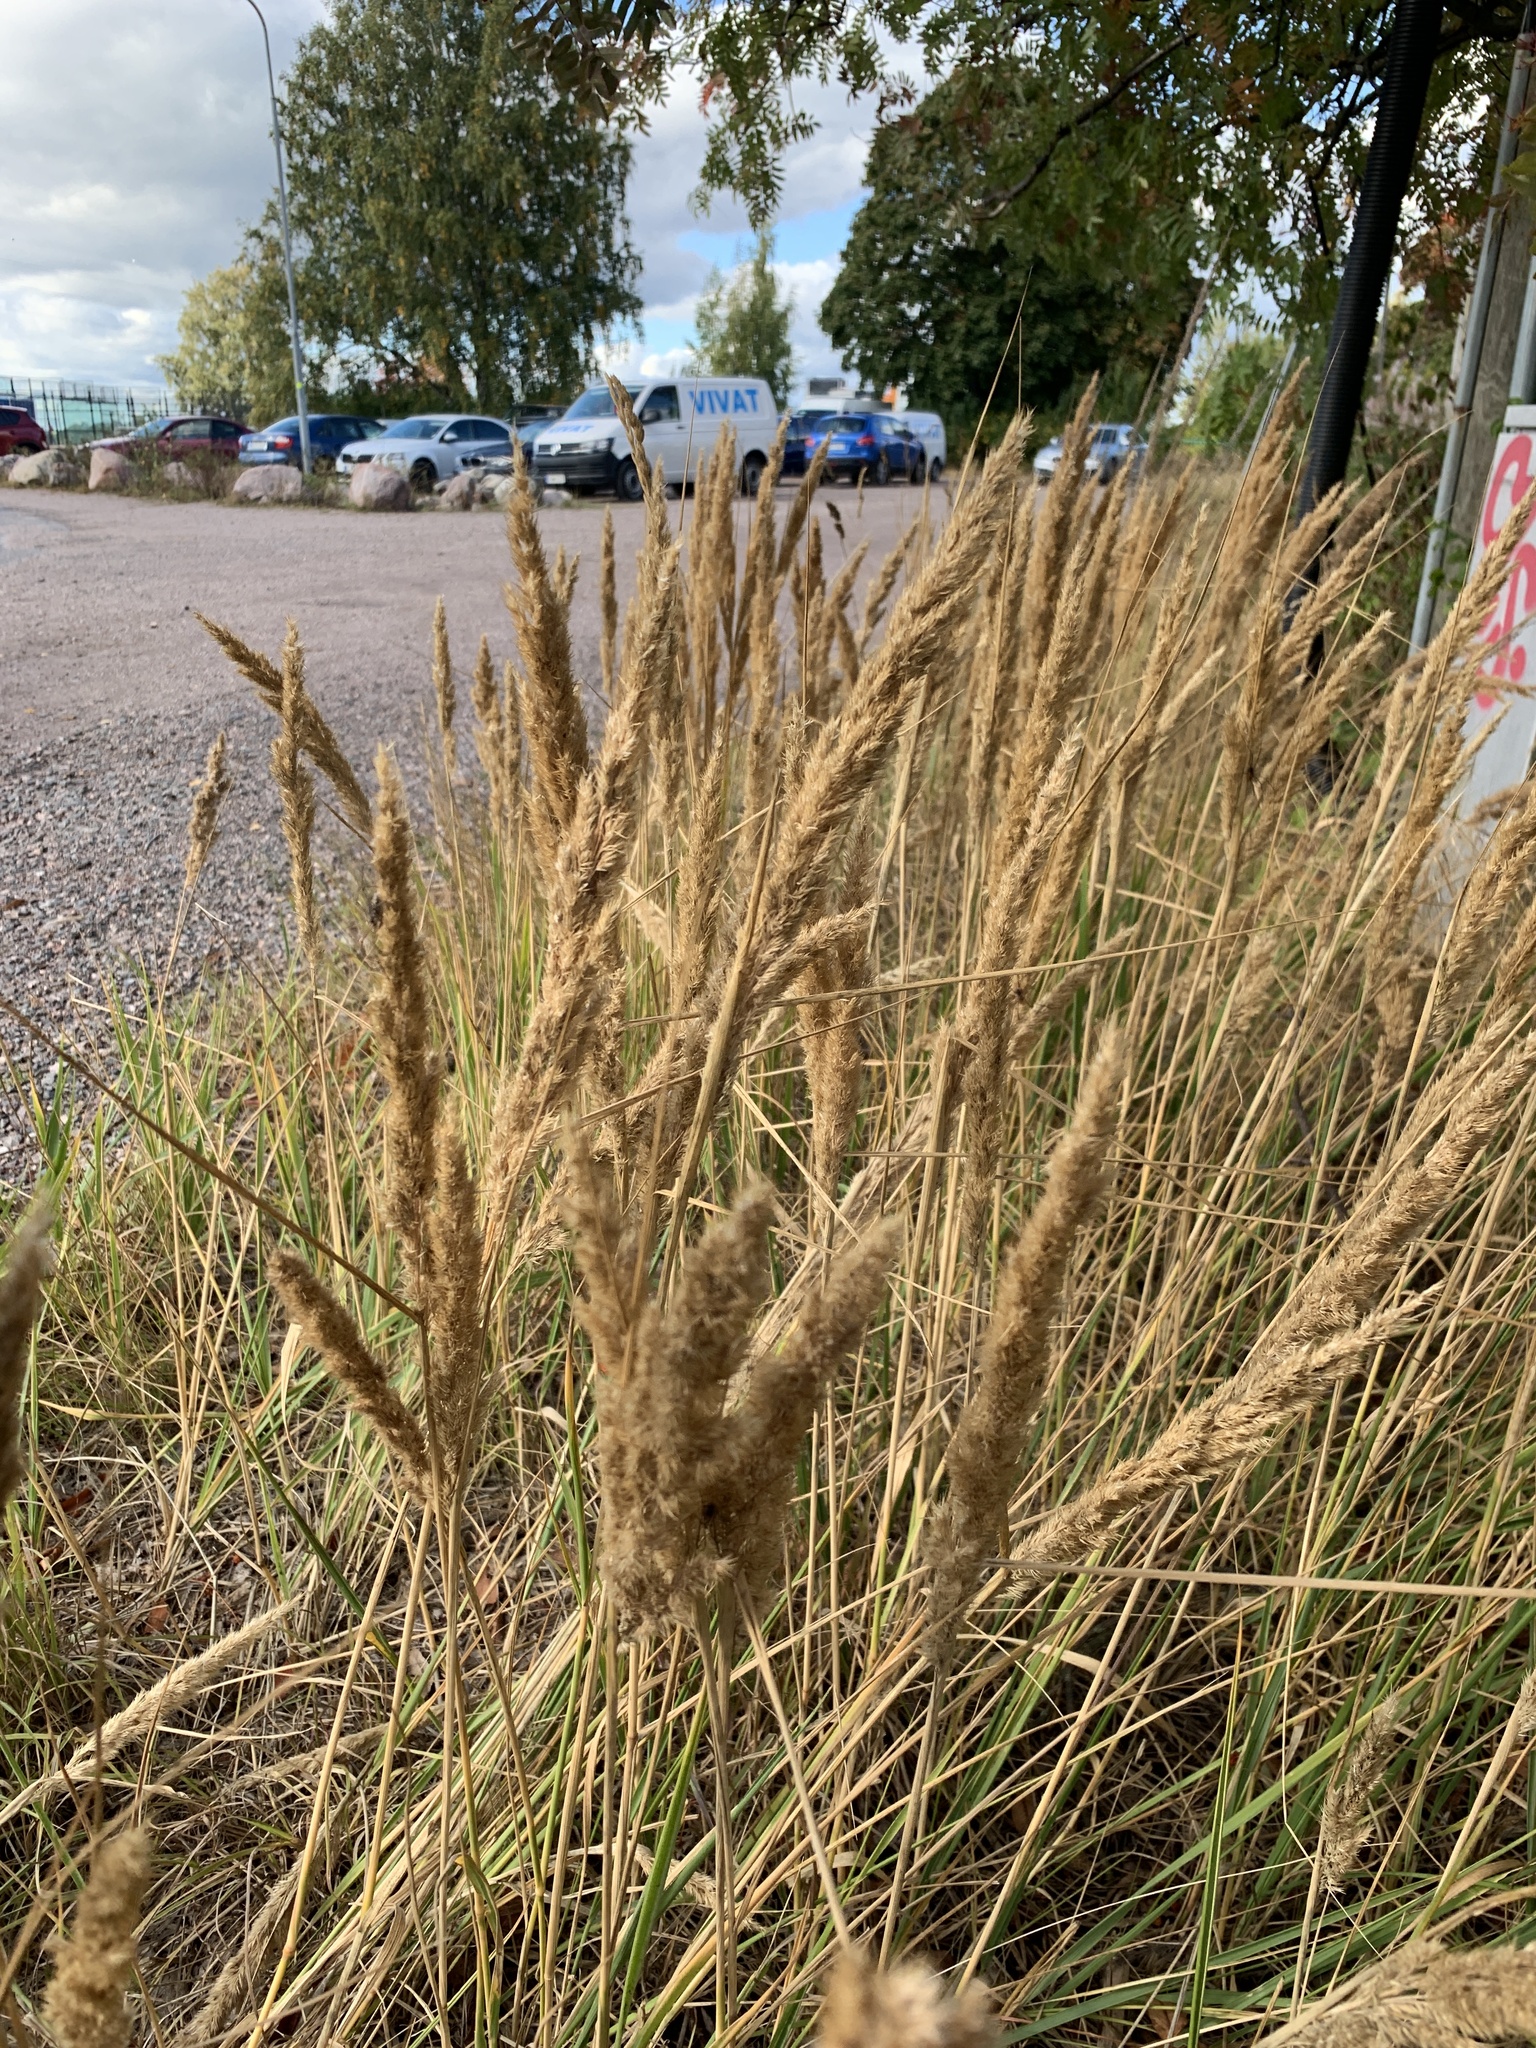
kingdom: Plantae
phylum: Tracheophyta
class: Liliopsida
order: Poales
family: Poaceae
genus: Calamagrostis
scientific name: Calamagrostis epigejos
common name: Wood small-reed
